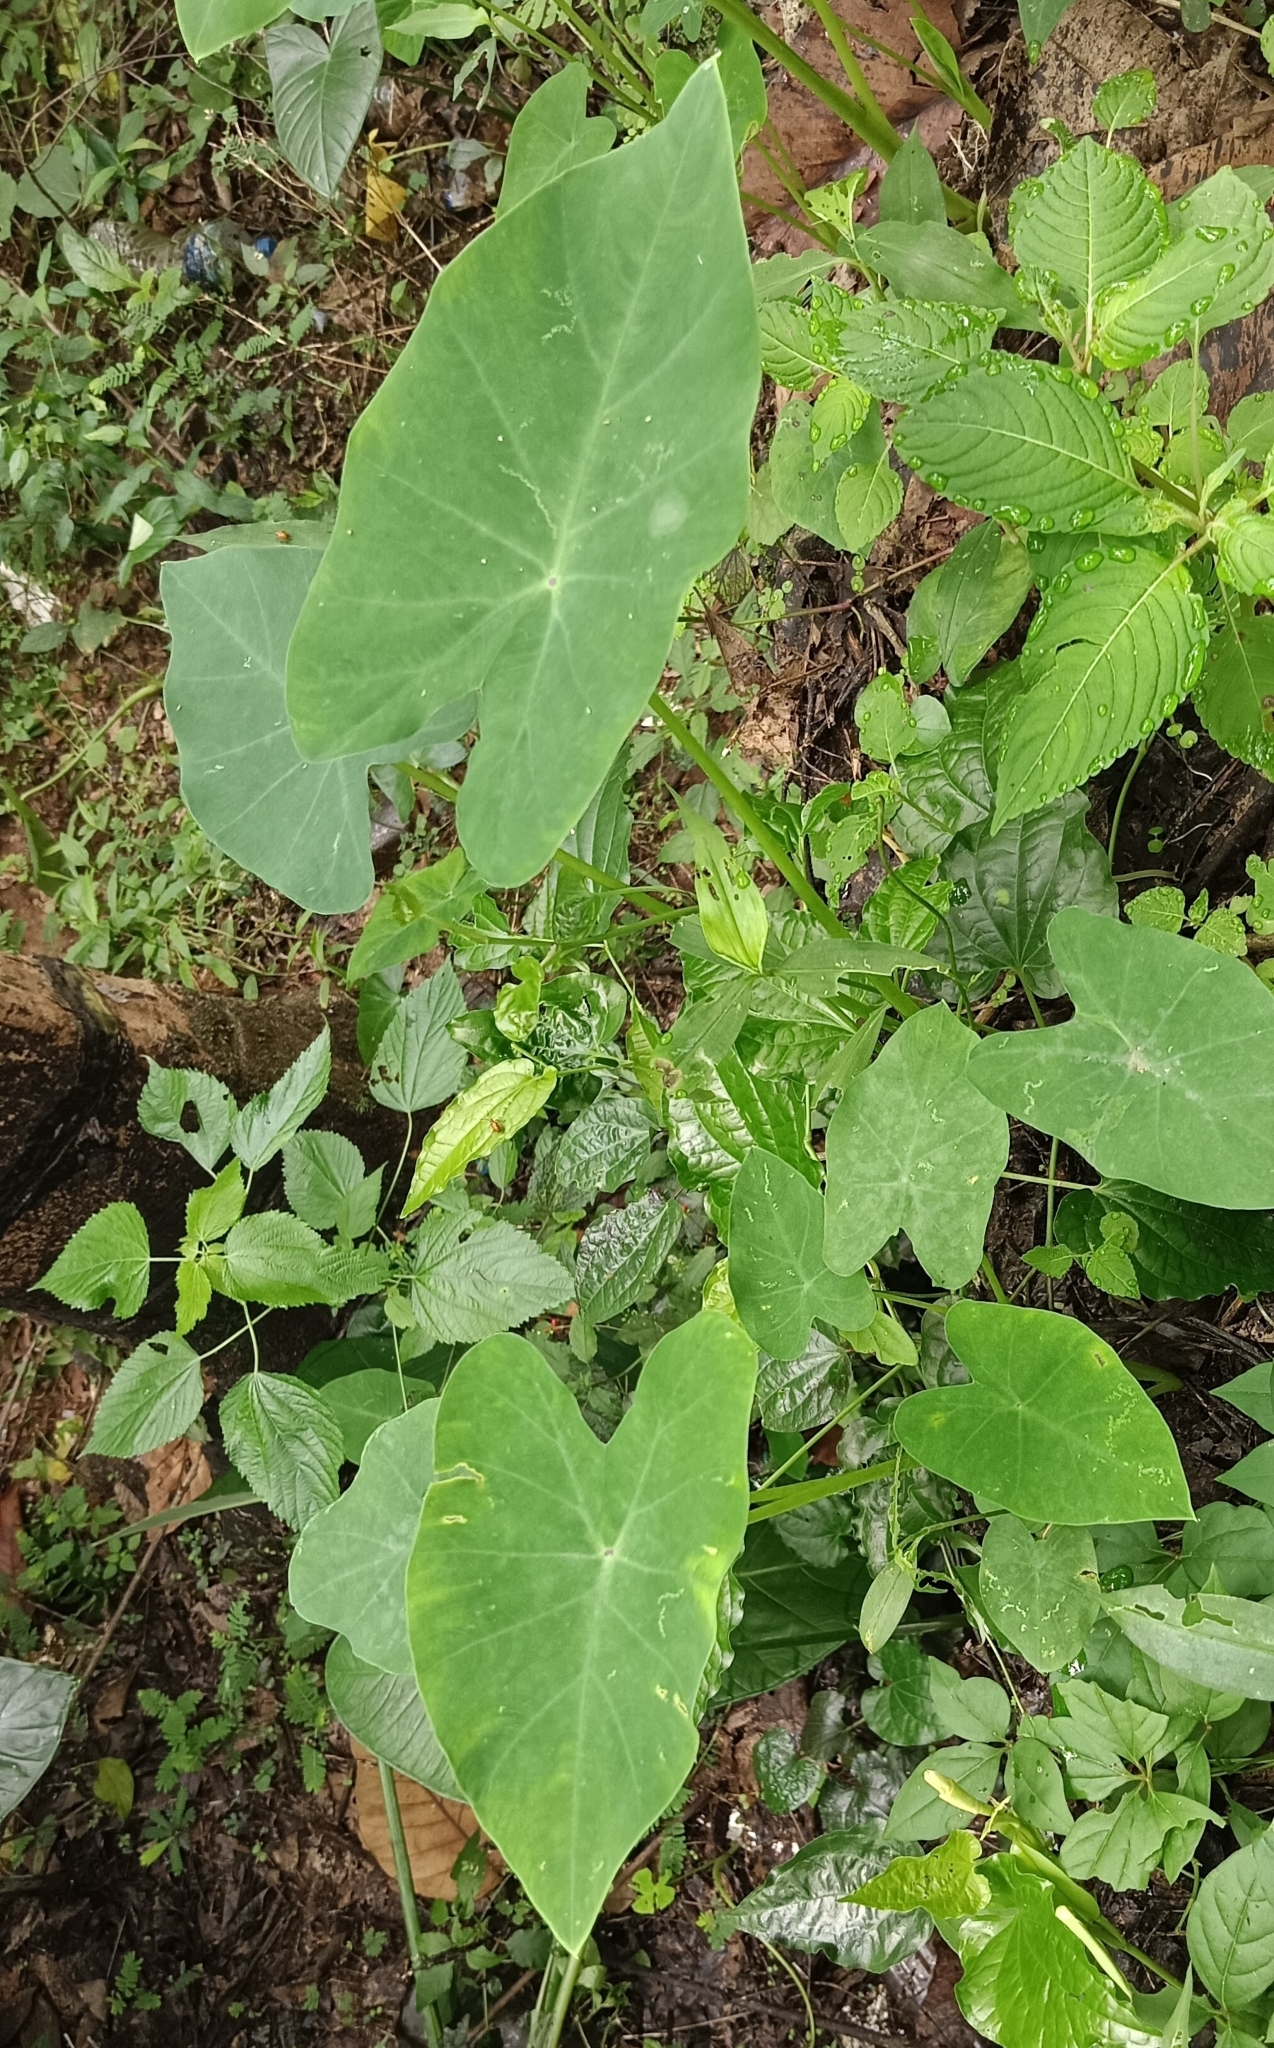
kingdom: Plantae
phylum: Tracheophyta
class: Liliopsida
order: Alismatales
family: Araceae
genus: Colocasia
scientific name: Colocasia esculenta
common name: Taro
